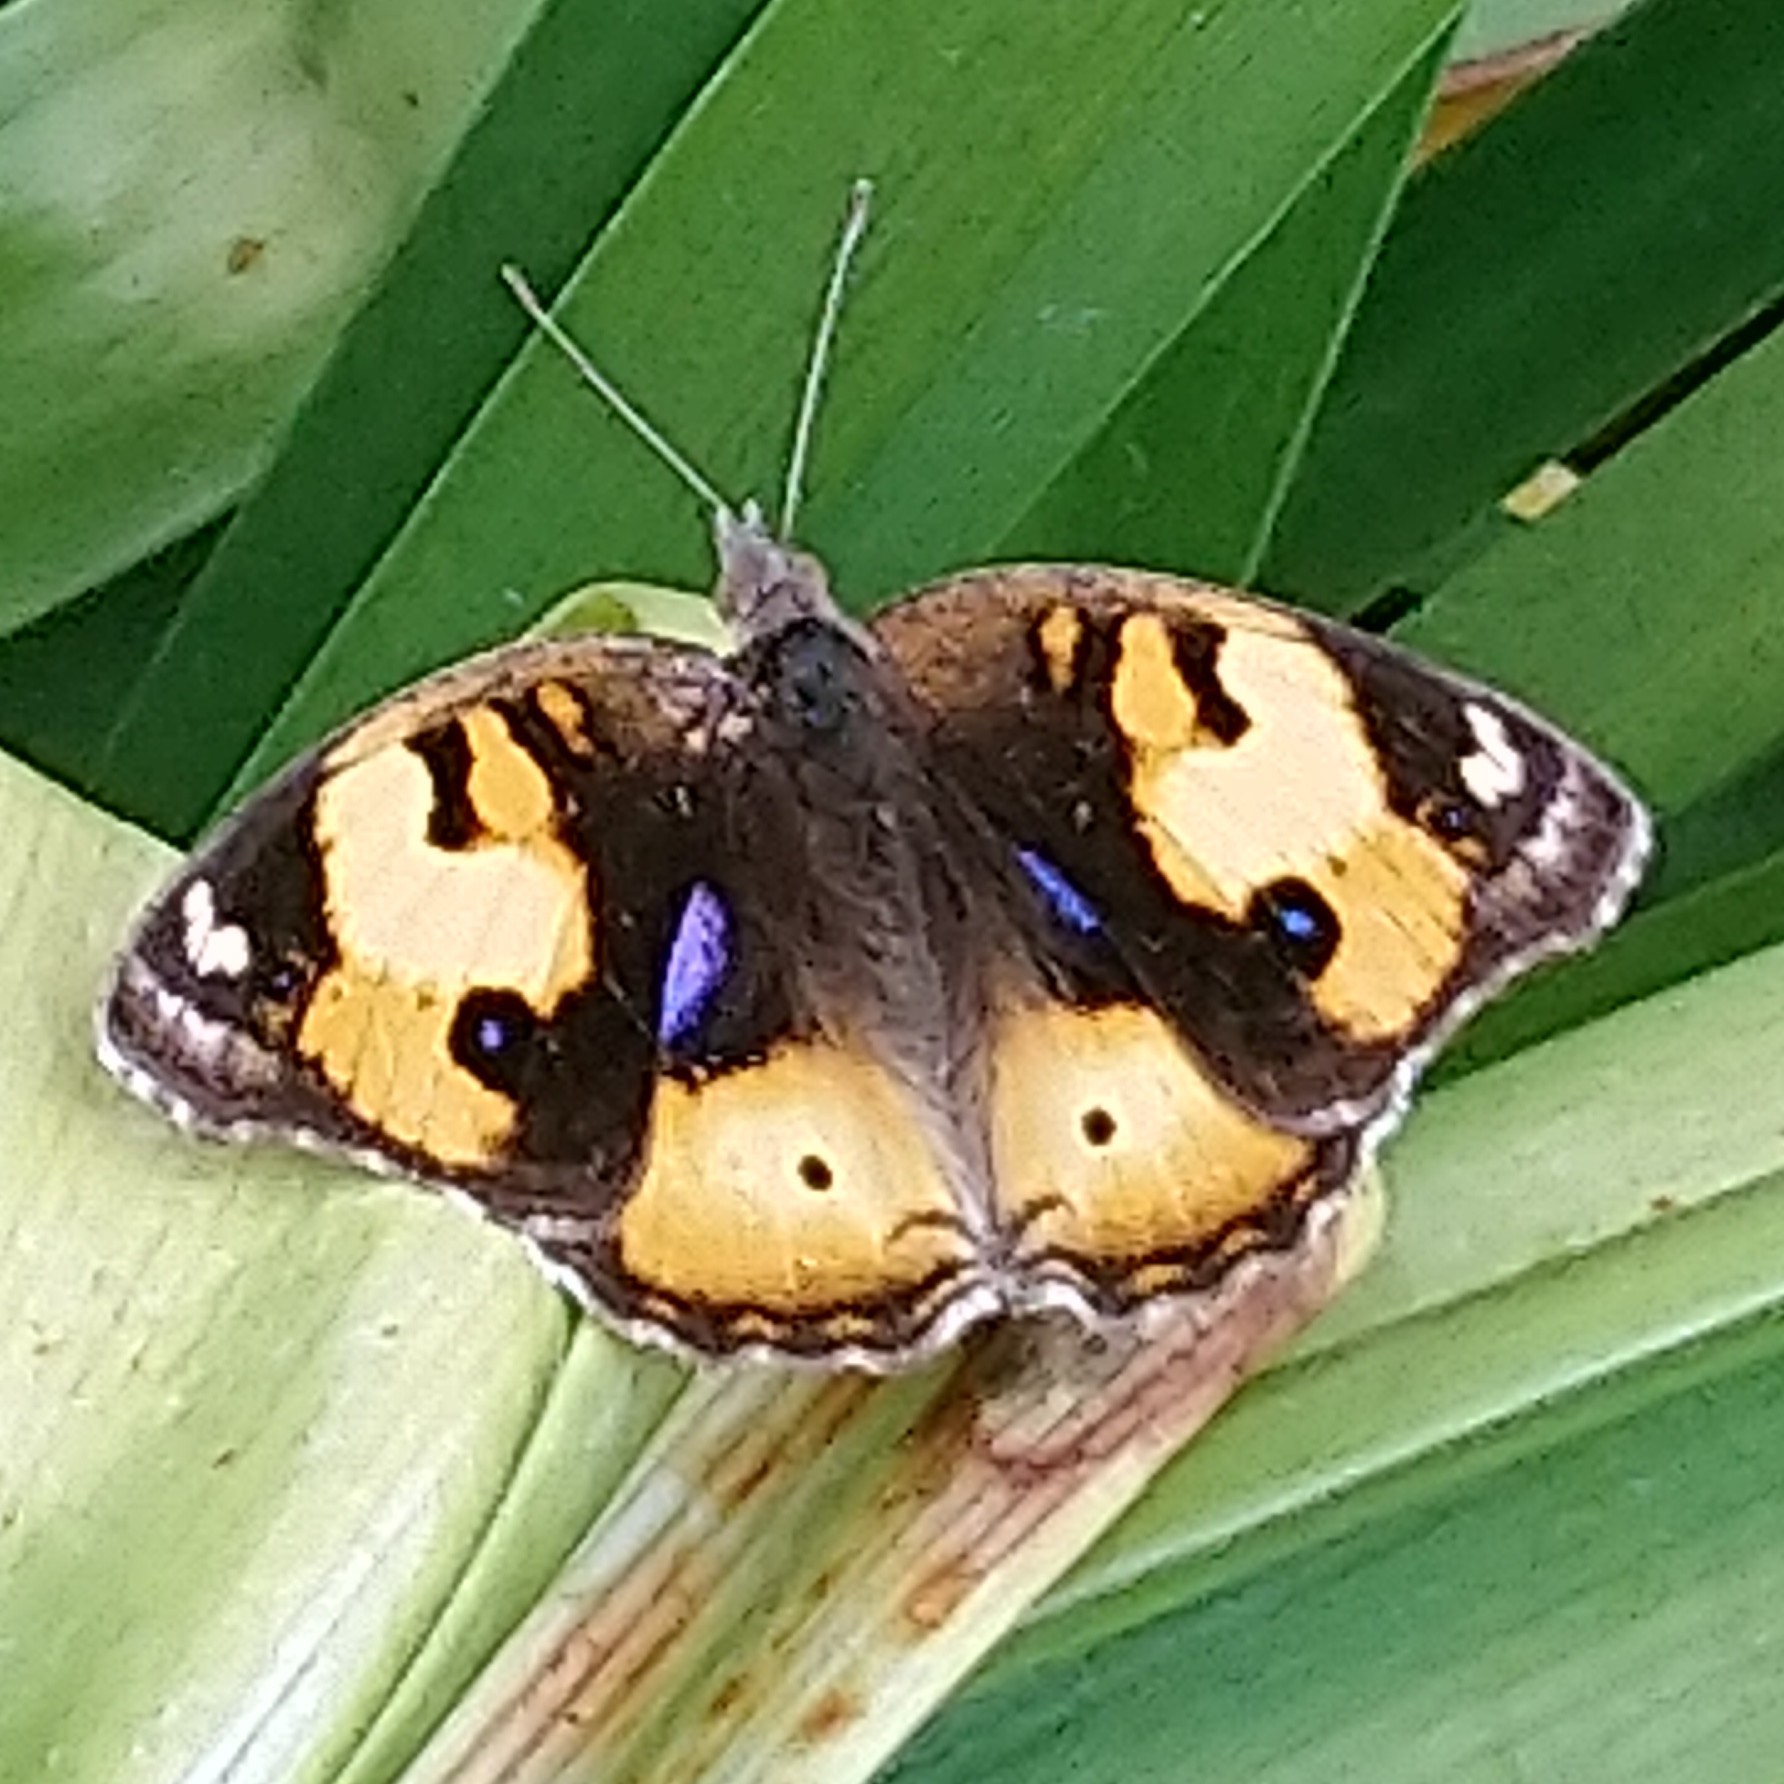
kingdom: Animalia
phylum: Arthropoda
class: Insecta
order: Lepidoptera
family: Nymphalidae
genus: Junonia
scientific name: Junonia hierta
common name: Yellow pansy
